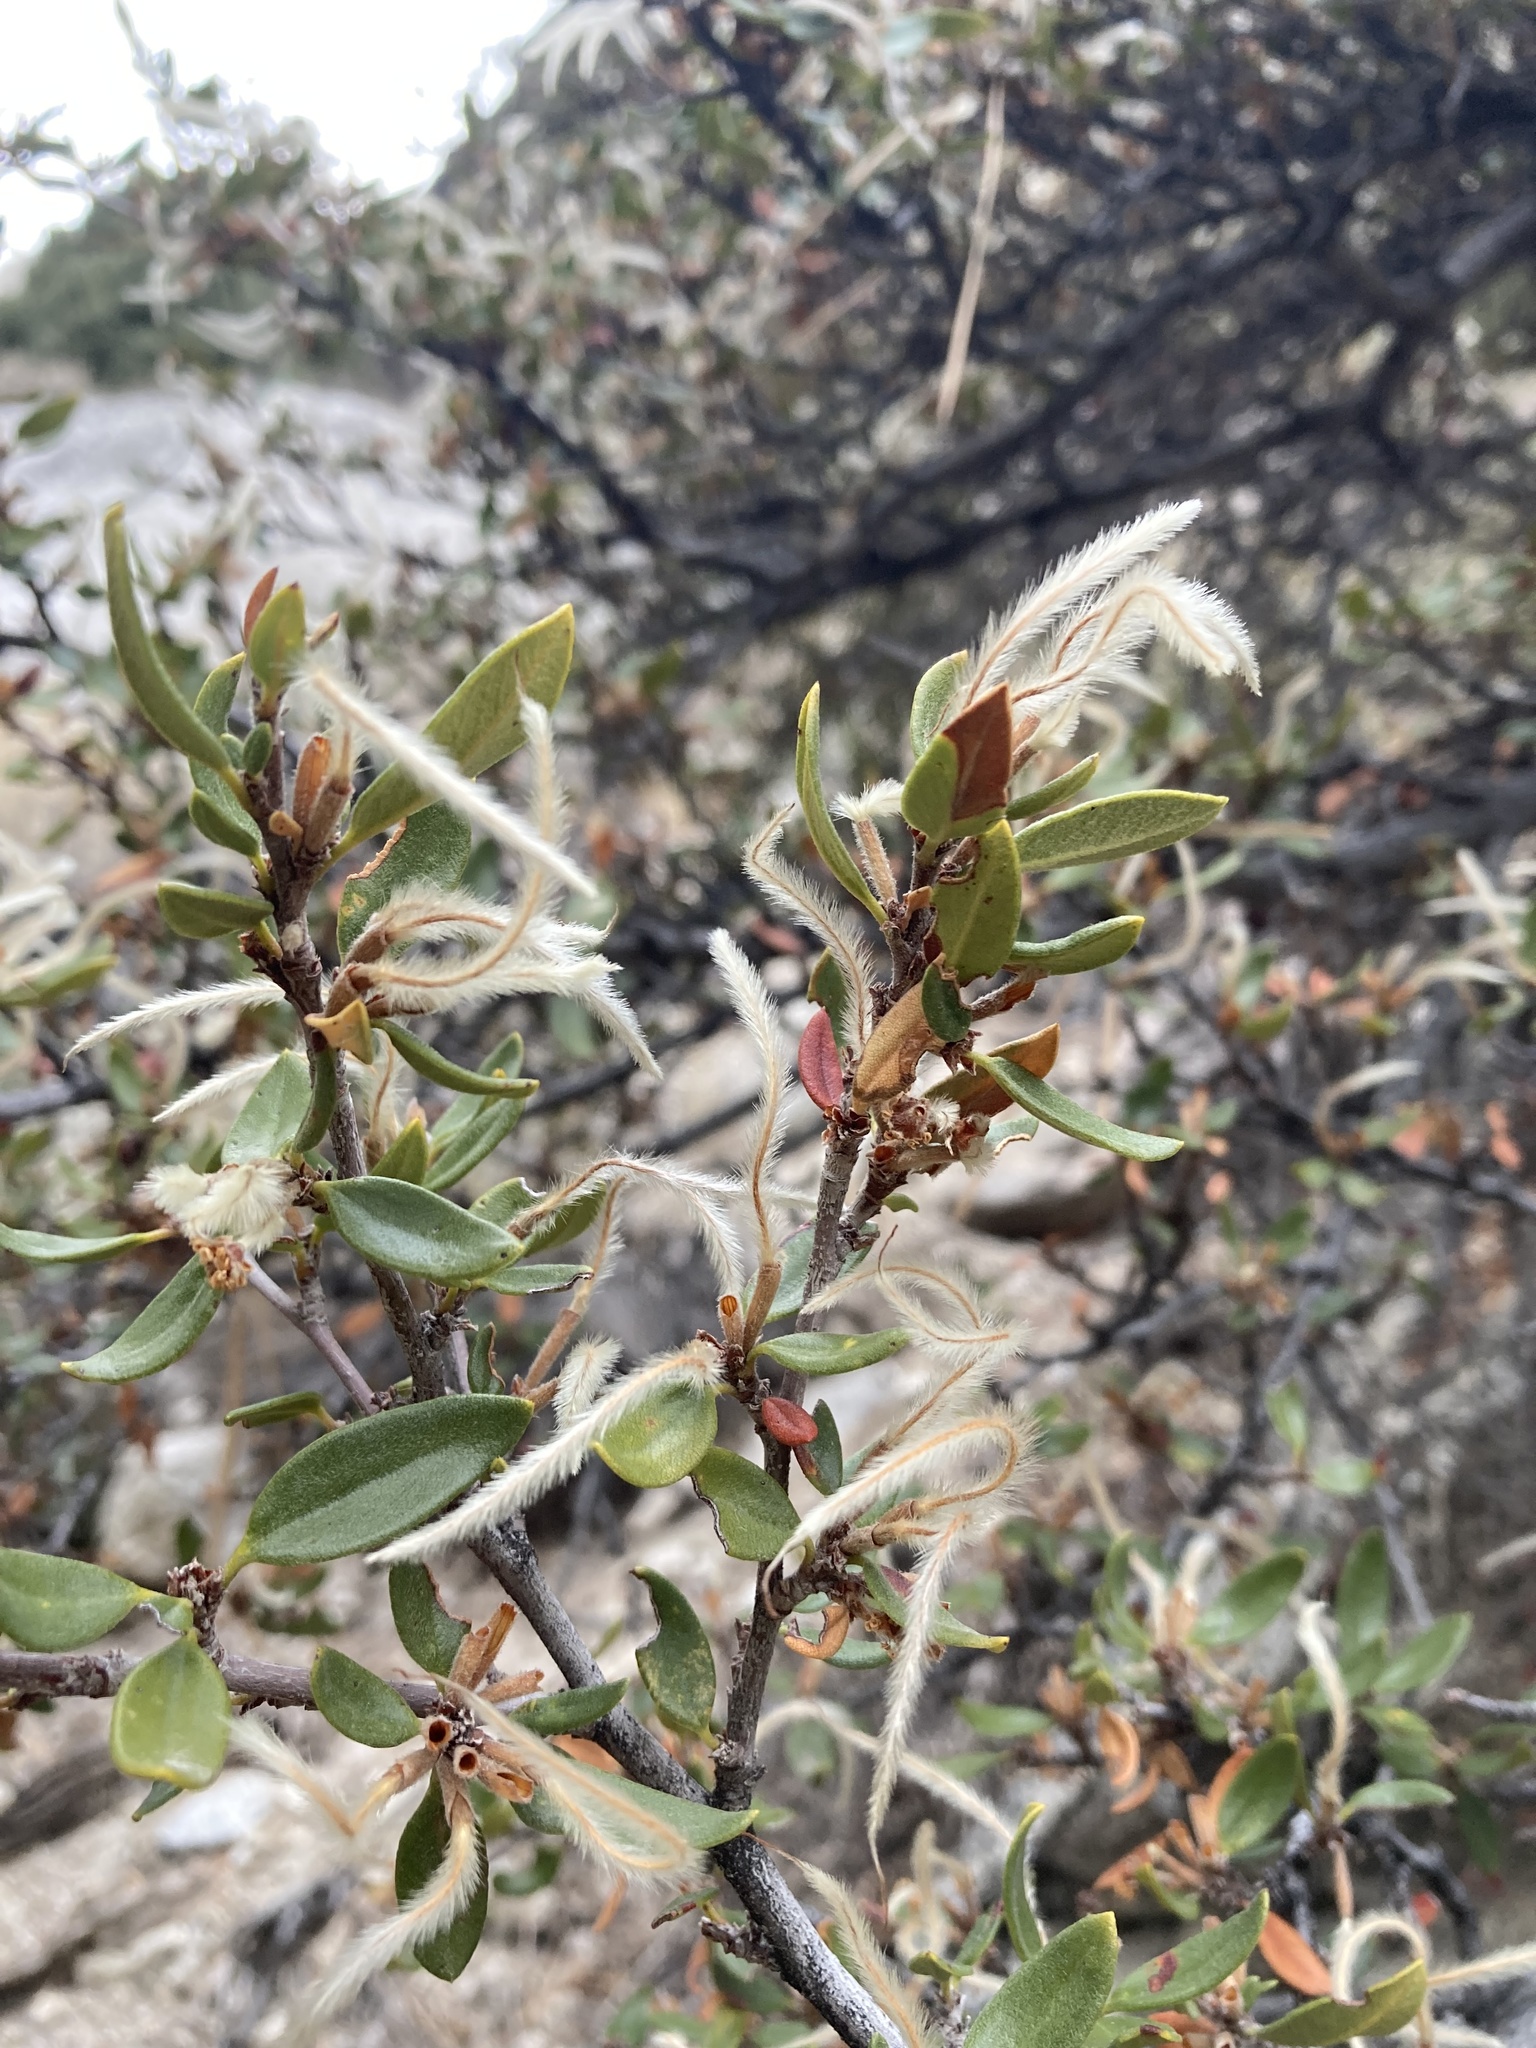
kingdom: Plantae
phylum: Tracheophyta
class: Magnoliopsida
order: Rosales
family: Rosaceae
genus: Cercocarpus
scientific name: Cercocarpus ledifolius
